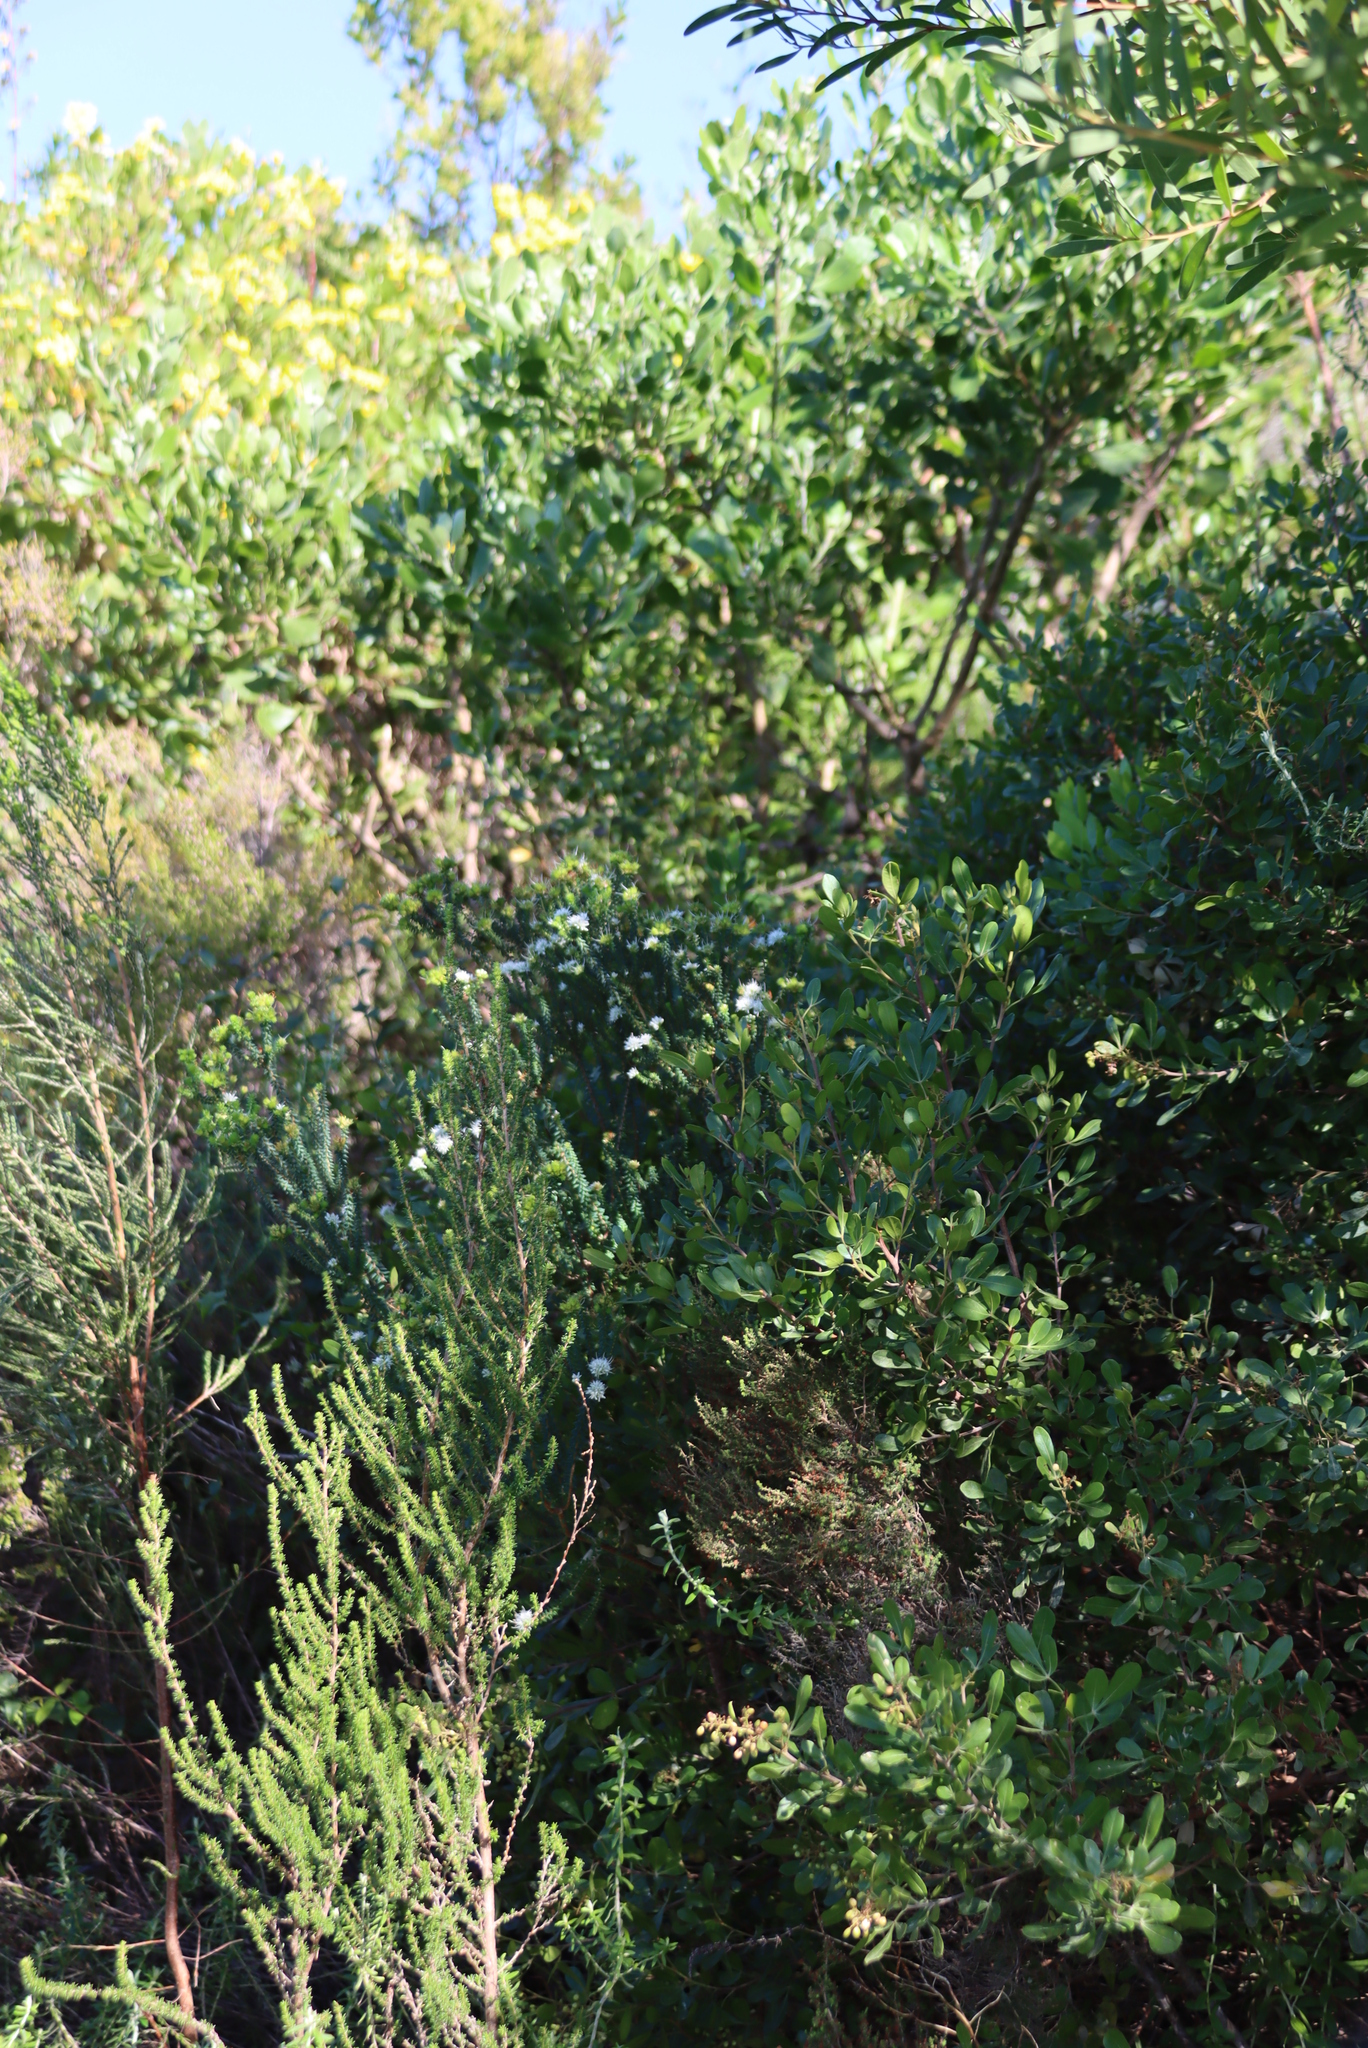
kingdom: Plantae
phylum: Tracheophyta
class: Magnoliopsida
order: Sapindales
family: Rutaceae
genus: Agathosma
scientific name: Agathosma apiculata
